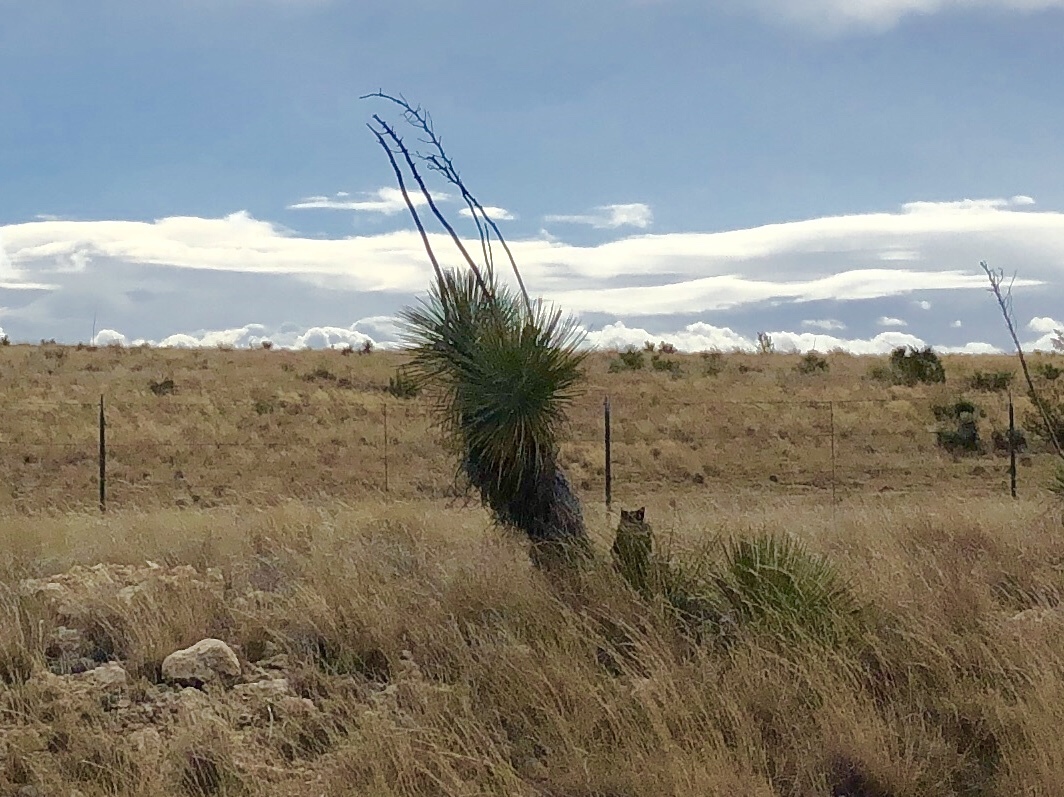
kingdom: Plantae
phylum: Tracheophyta
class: Liliopsida
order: Asparagales
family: Asparagaceae
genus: Yucca
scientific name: Yucca elata
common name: Palmella
